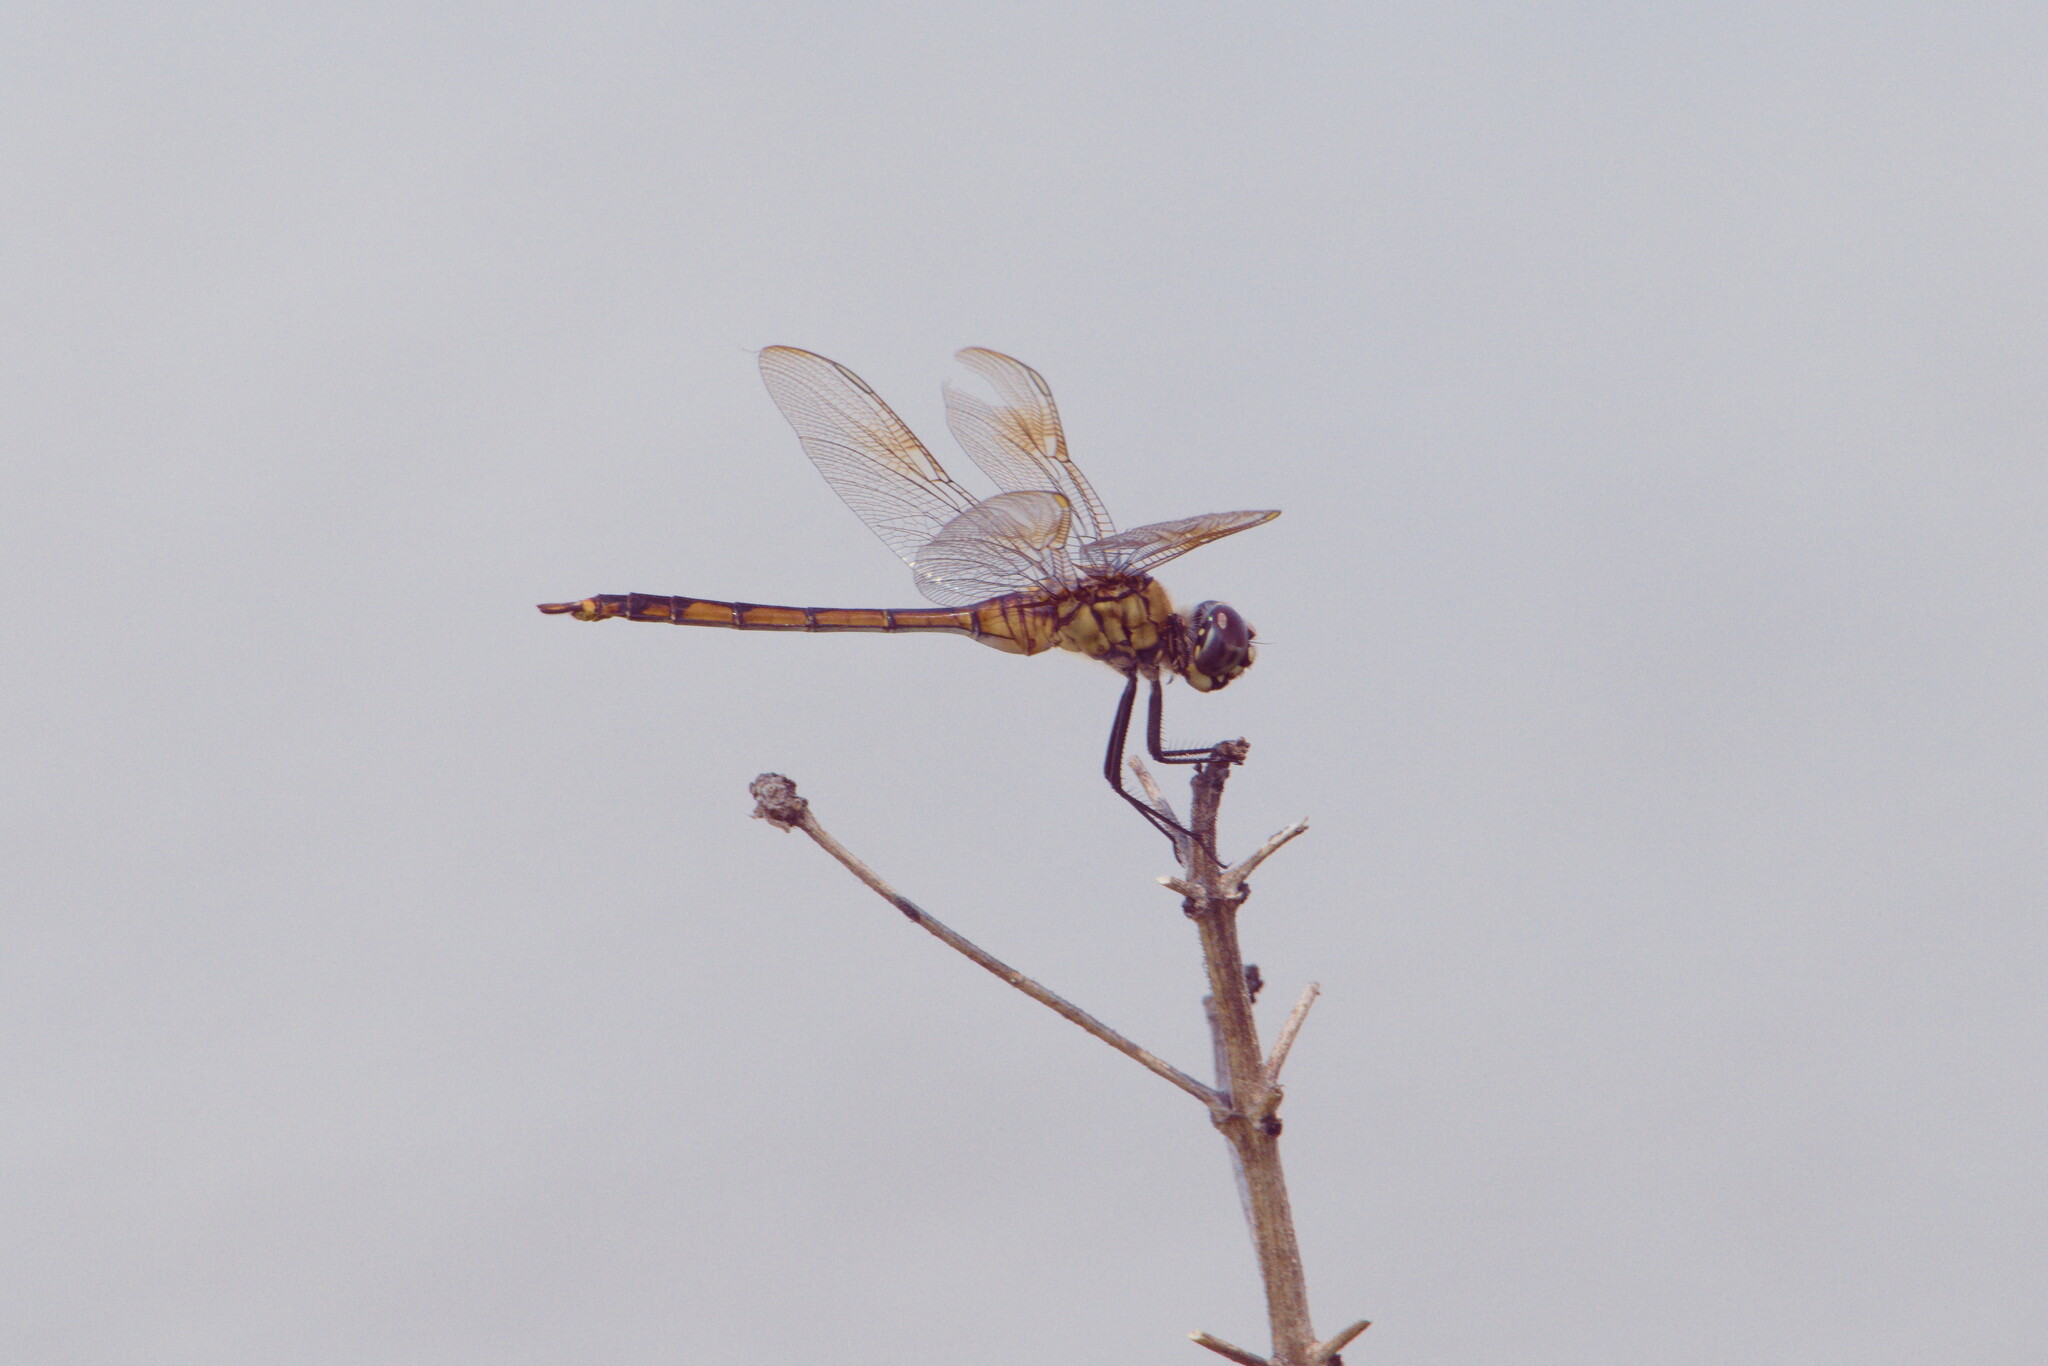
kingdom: Animalia
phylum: Arthropoda
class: Insecta
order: Odonata
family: Libellulidae
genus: Brachymesia
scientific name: Brachymesia gravida
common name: Four-spotted pennant
